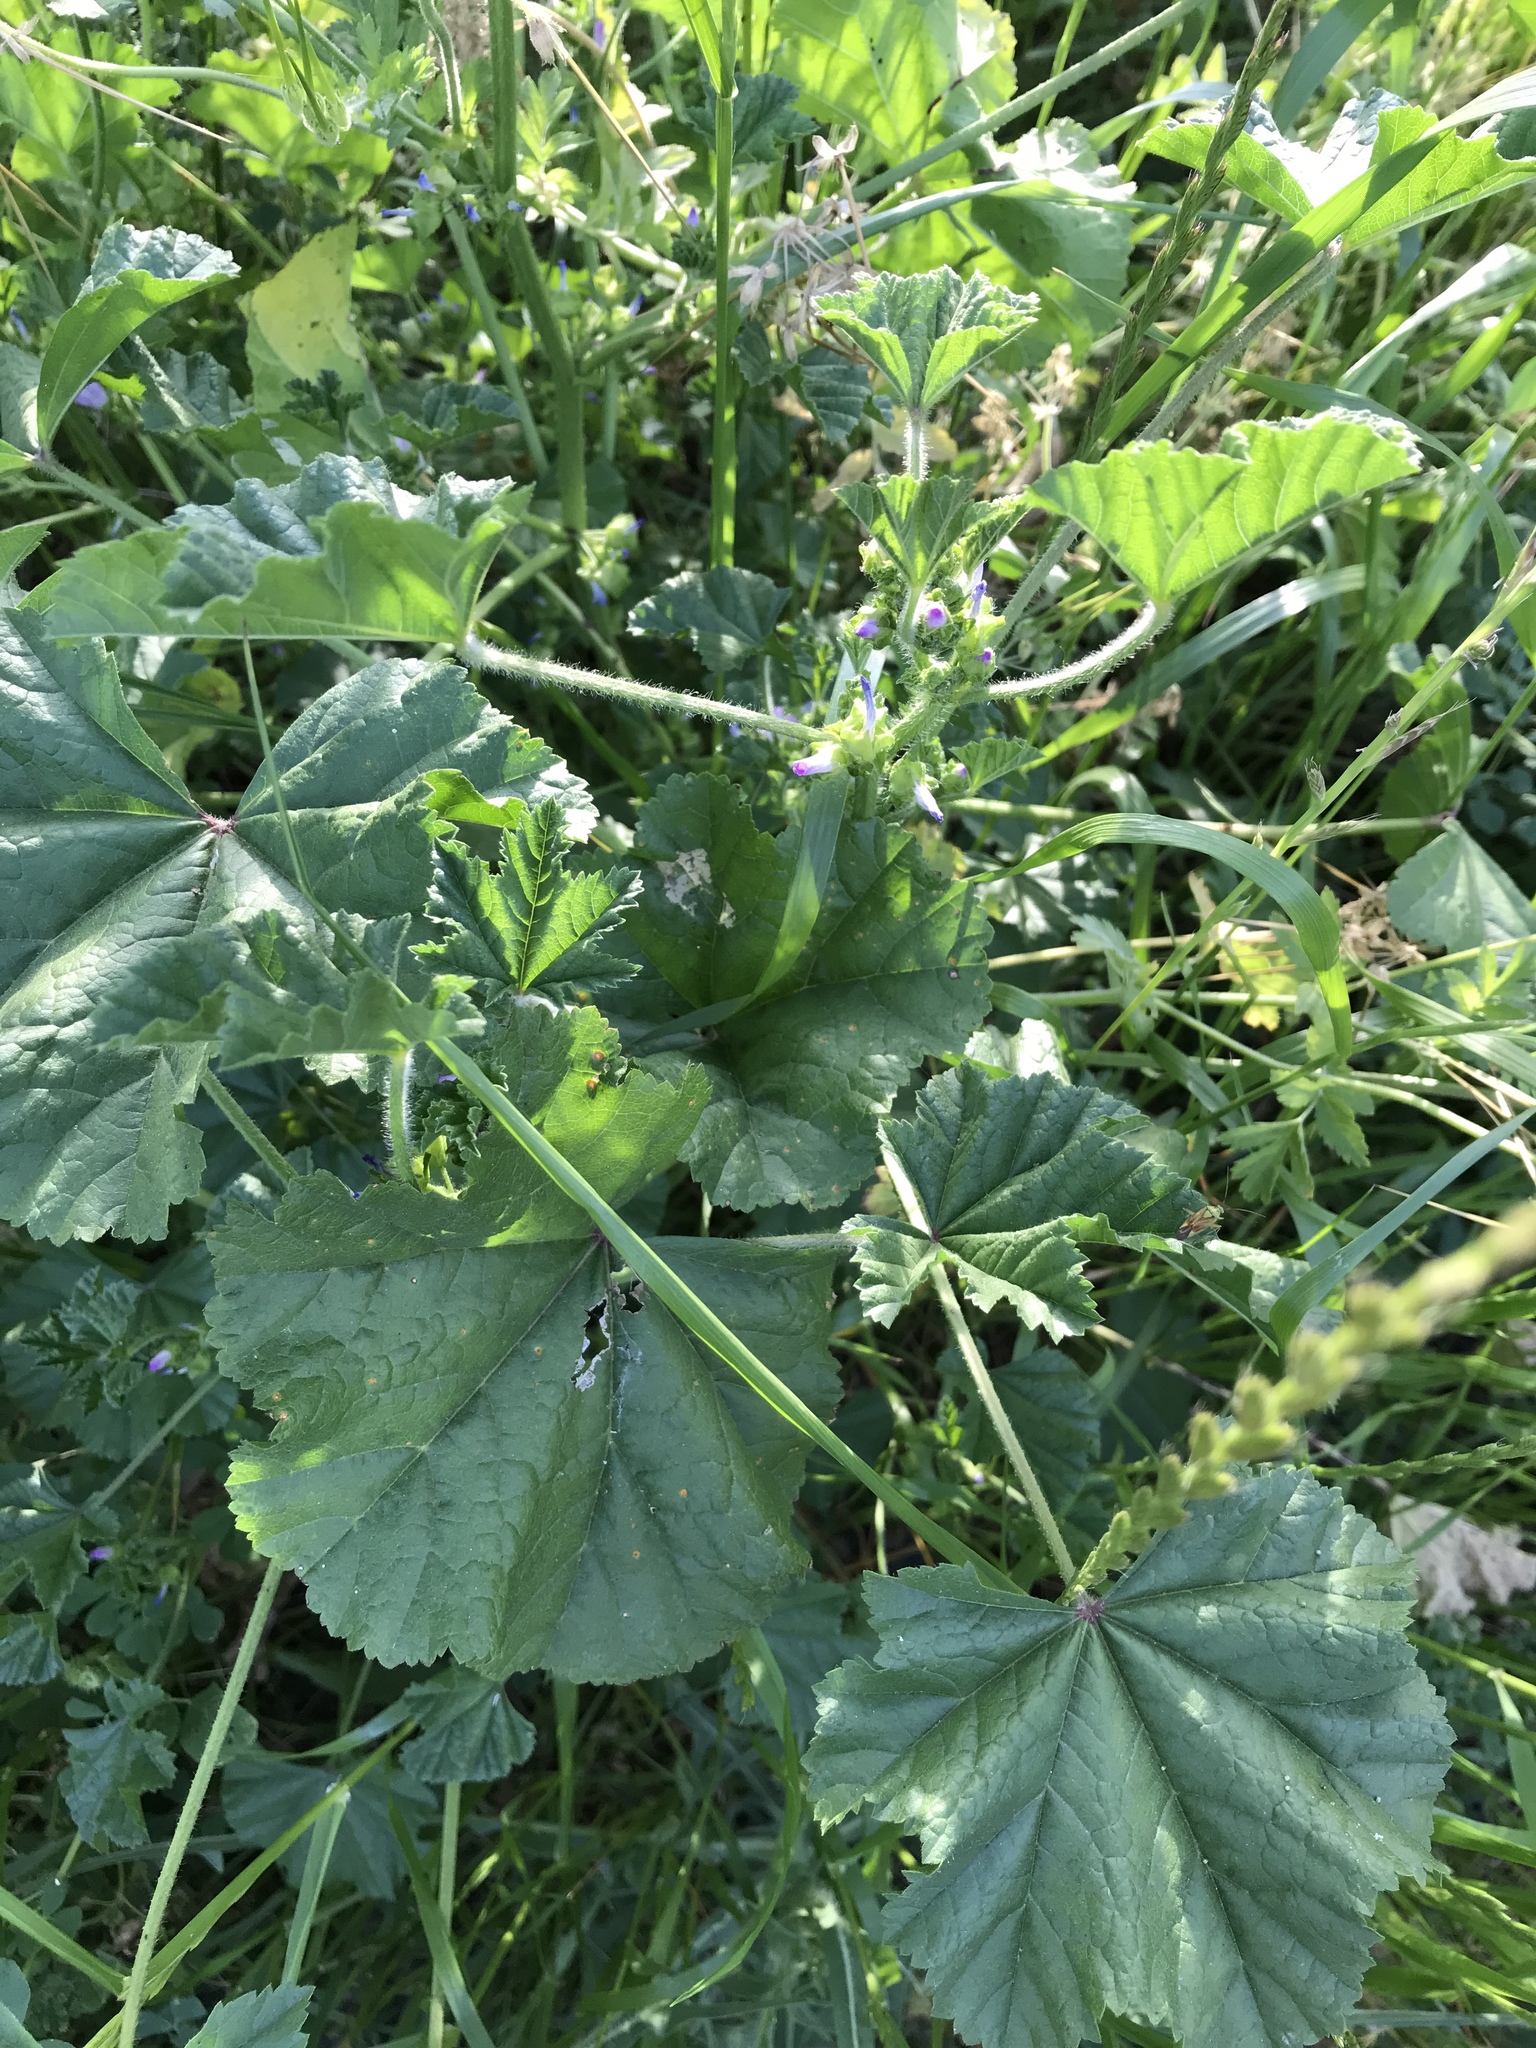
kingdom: Plantae
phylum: Tracheophyta
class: Magnoliopsida
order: Malvales
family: Malvaceae
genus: Malva
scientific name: Malva multiflora
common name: Cheeseweed
